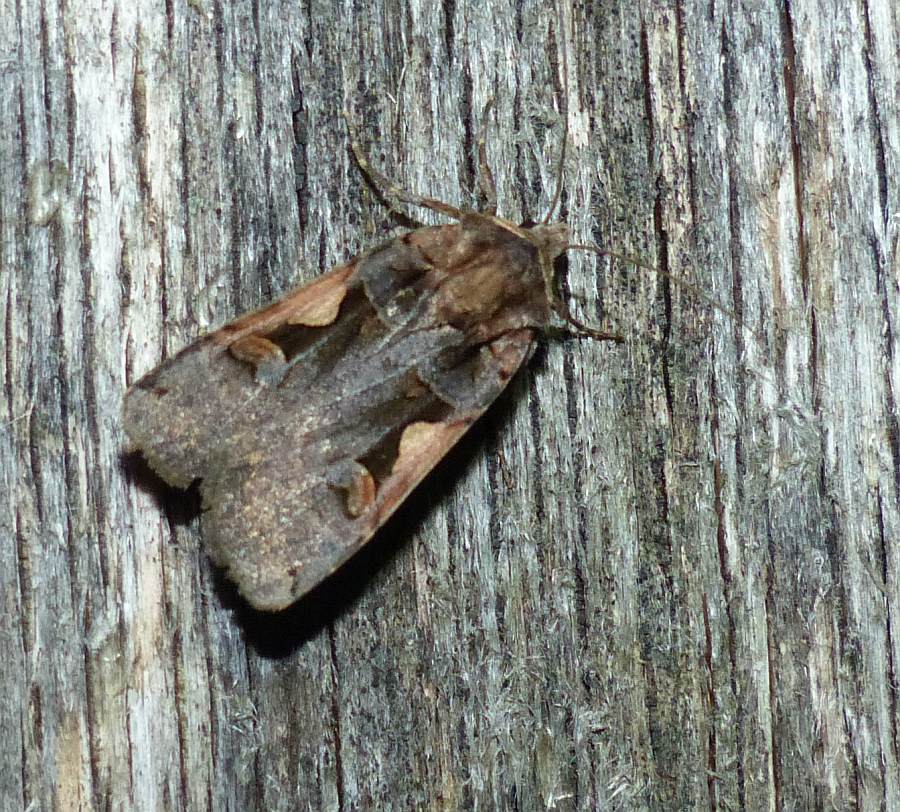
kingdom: Animalia
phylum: Arthropoda
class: Insecta
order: Lepidoptera
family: Noctuidae
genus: Xestia
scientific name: Xestia
